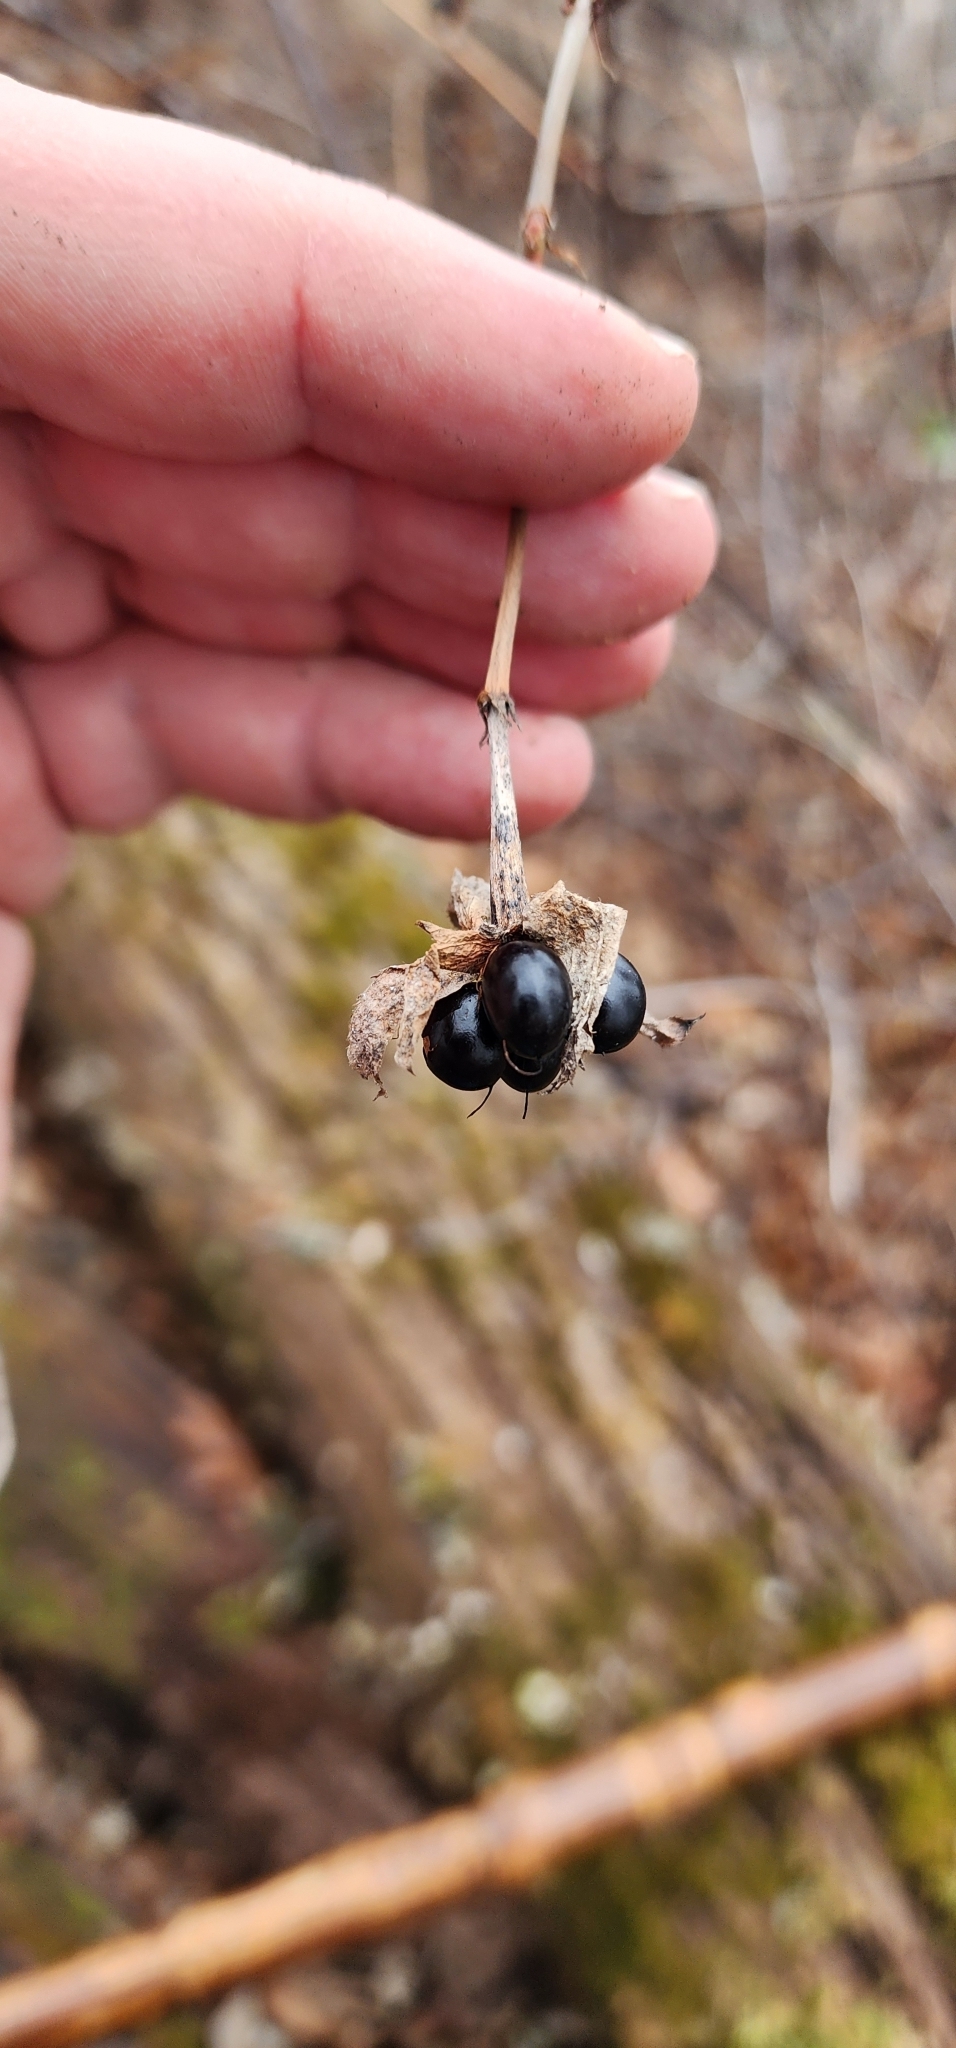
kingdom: Plantae
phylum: Tracheophyta
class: Magnoliopsida
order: Rosales
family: Rosaceae
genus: Rhodotypos
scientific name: Rhodotypos scandens
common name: Jetbead
